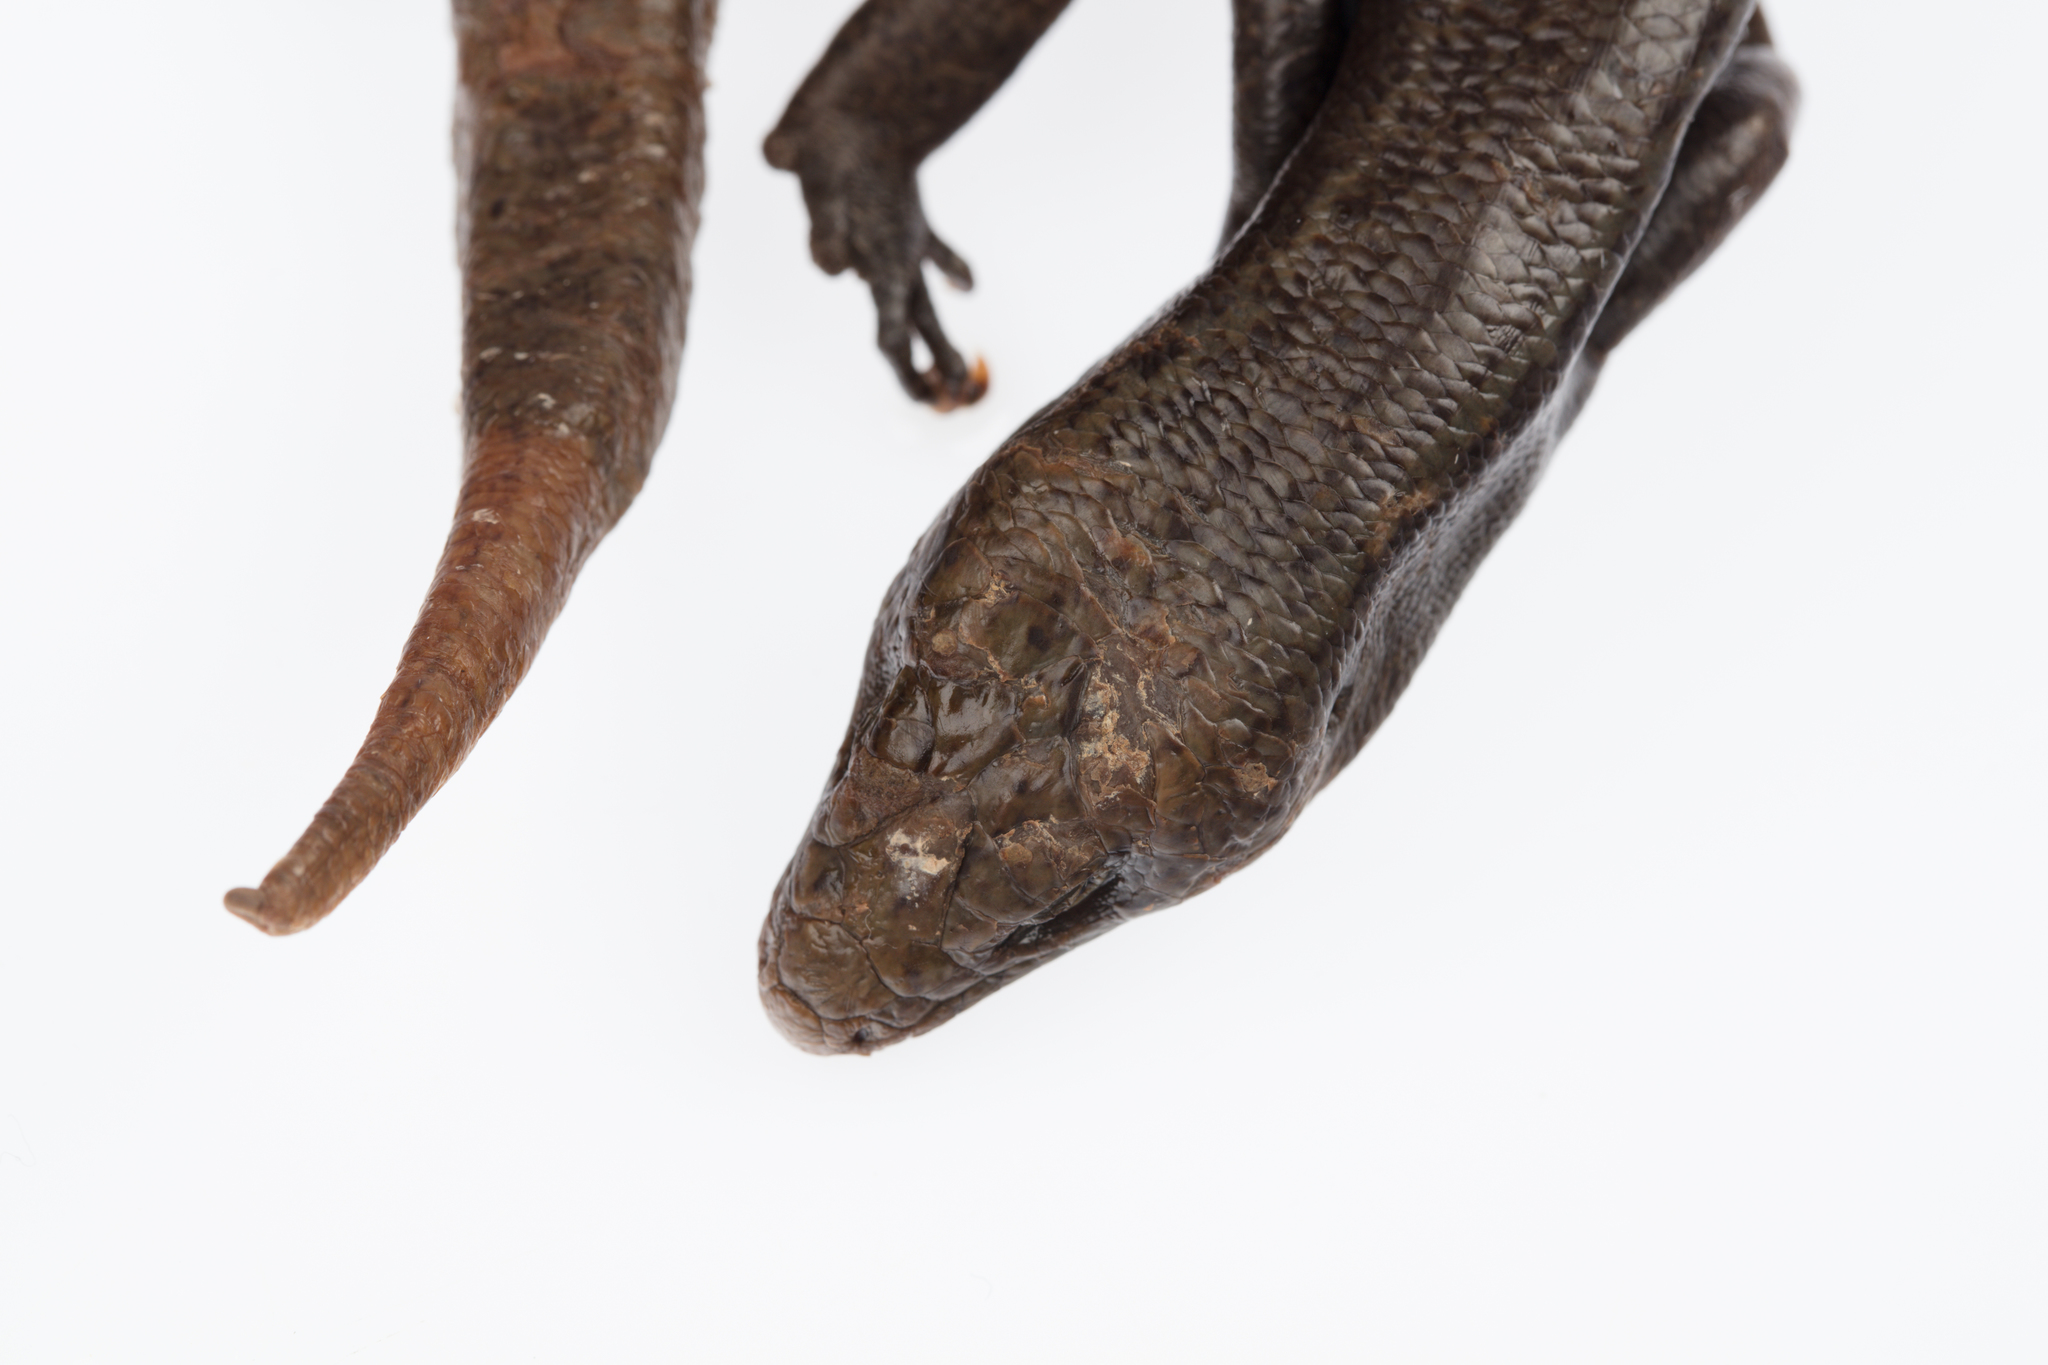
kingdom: Animalia
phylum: Chordata
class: Squamata
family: Scincidae
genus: Oligosoma
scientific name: Oligosoma fallai
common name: Falla's skink
